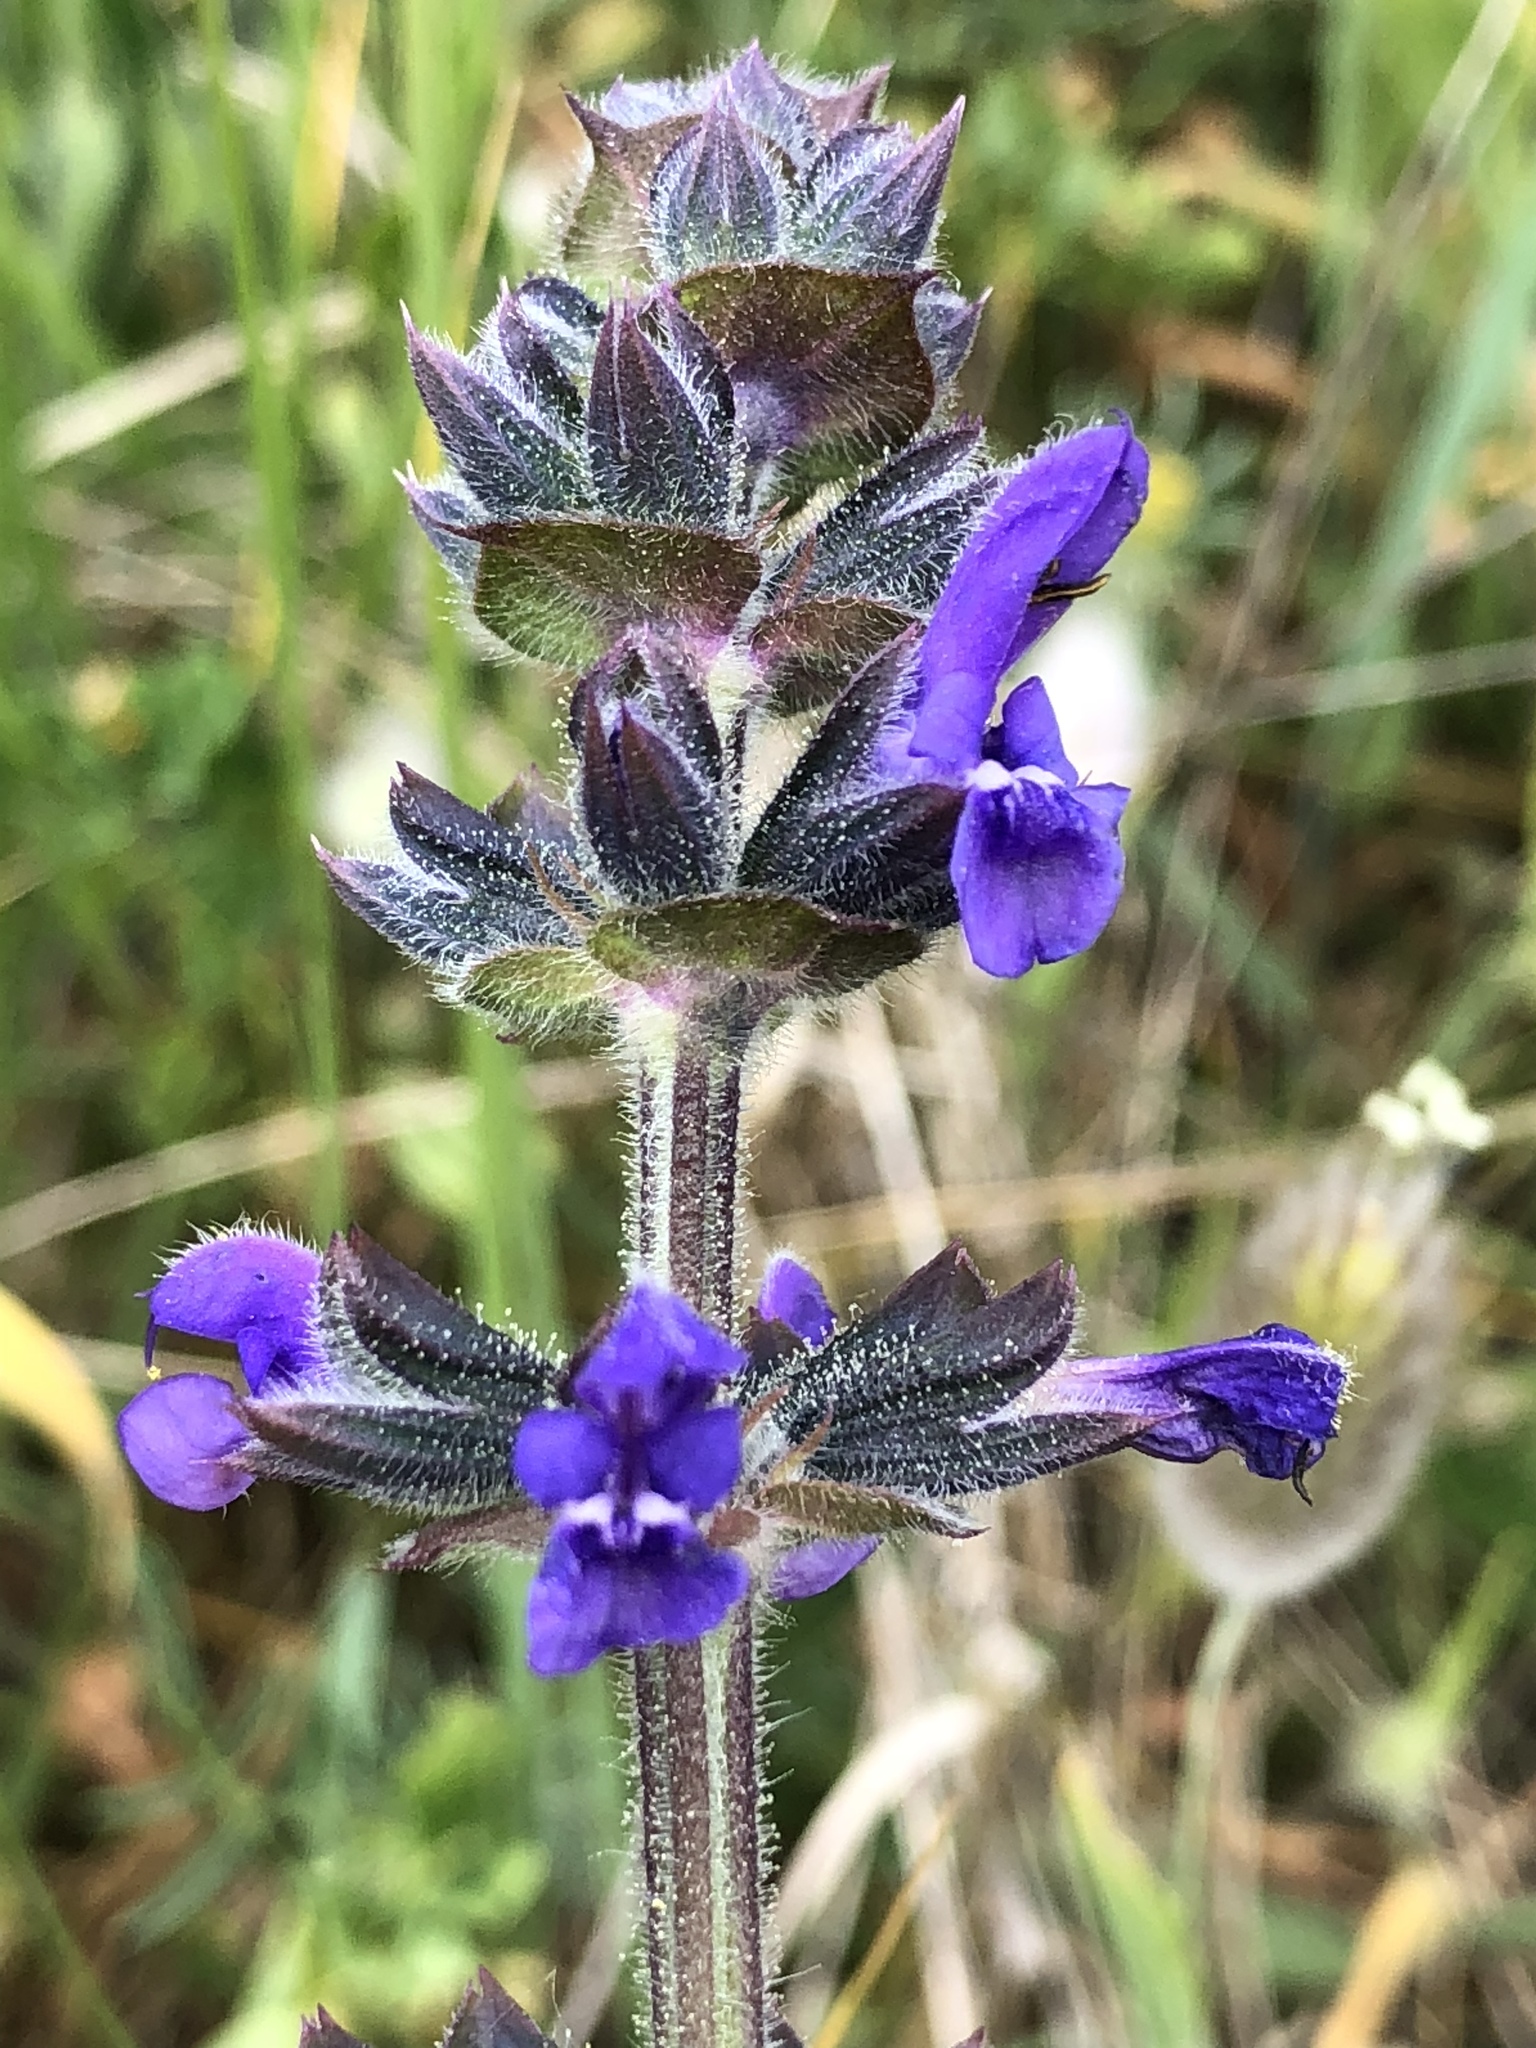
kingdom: Plantae
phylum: Tracheophyta
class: Magnoliopsida
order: Lamiales
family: Lamiaceae
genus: Salvia
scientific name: Salvia verbenaca
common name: Wild clary
